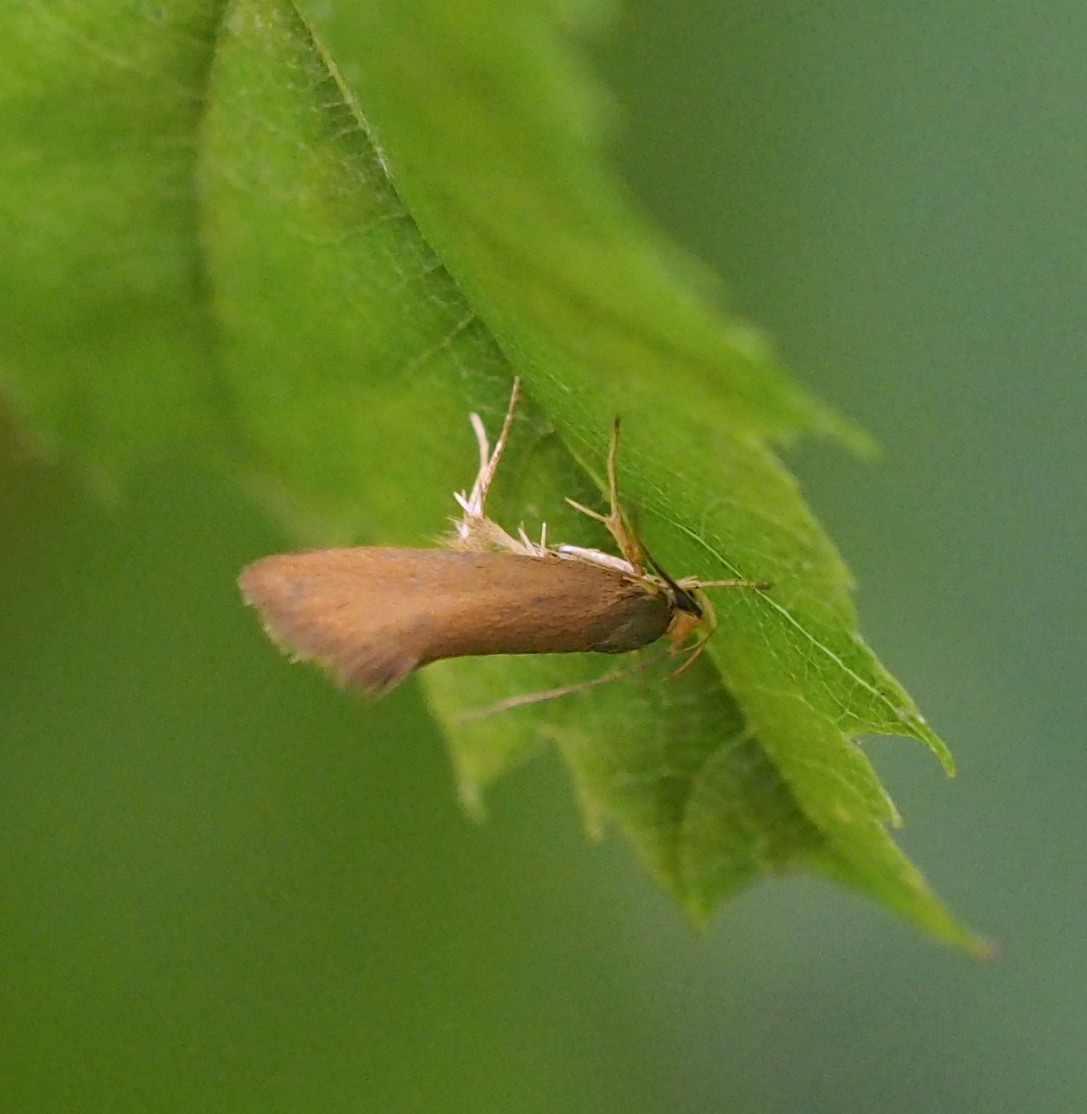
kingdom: Animalia
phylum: Arthropoda
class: Insecta
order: Lepidoptera
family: Oecophoridae
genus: Borkhausenia
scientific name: Borkhausenia Crassa unitella
